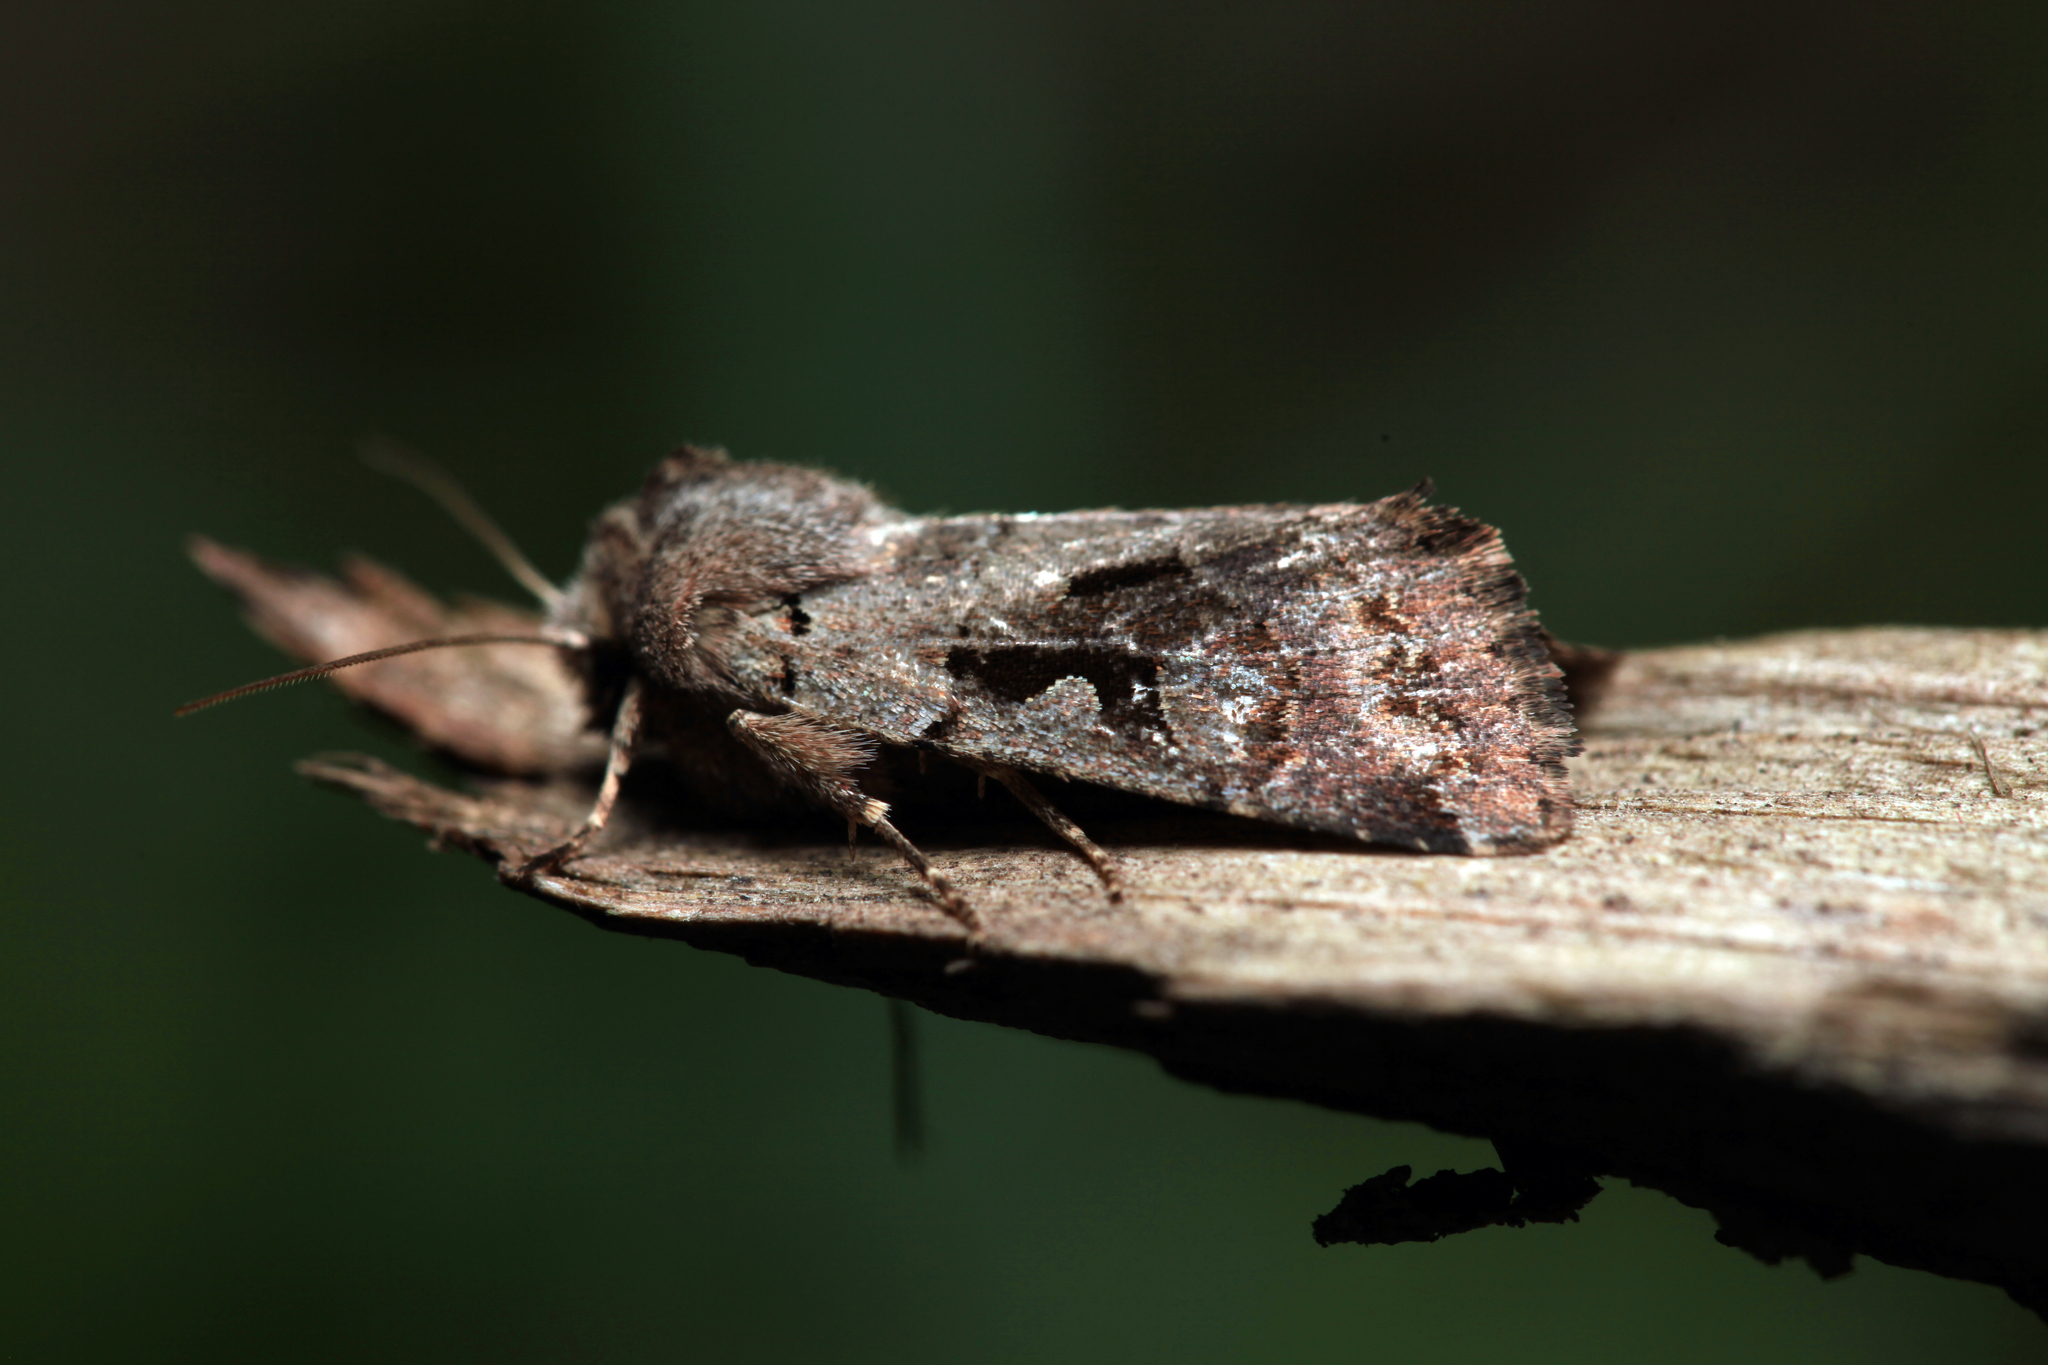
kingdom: Animalia
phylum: Arthropoda
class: Insecta
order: Lepidoptera
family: Noctuidae
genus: Orthosia
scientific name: Orthosia gothica
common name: Hebrew character
